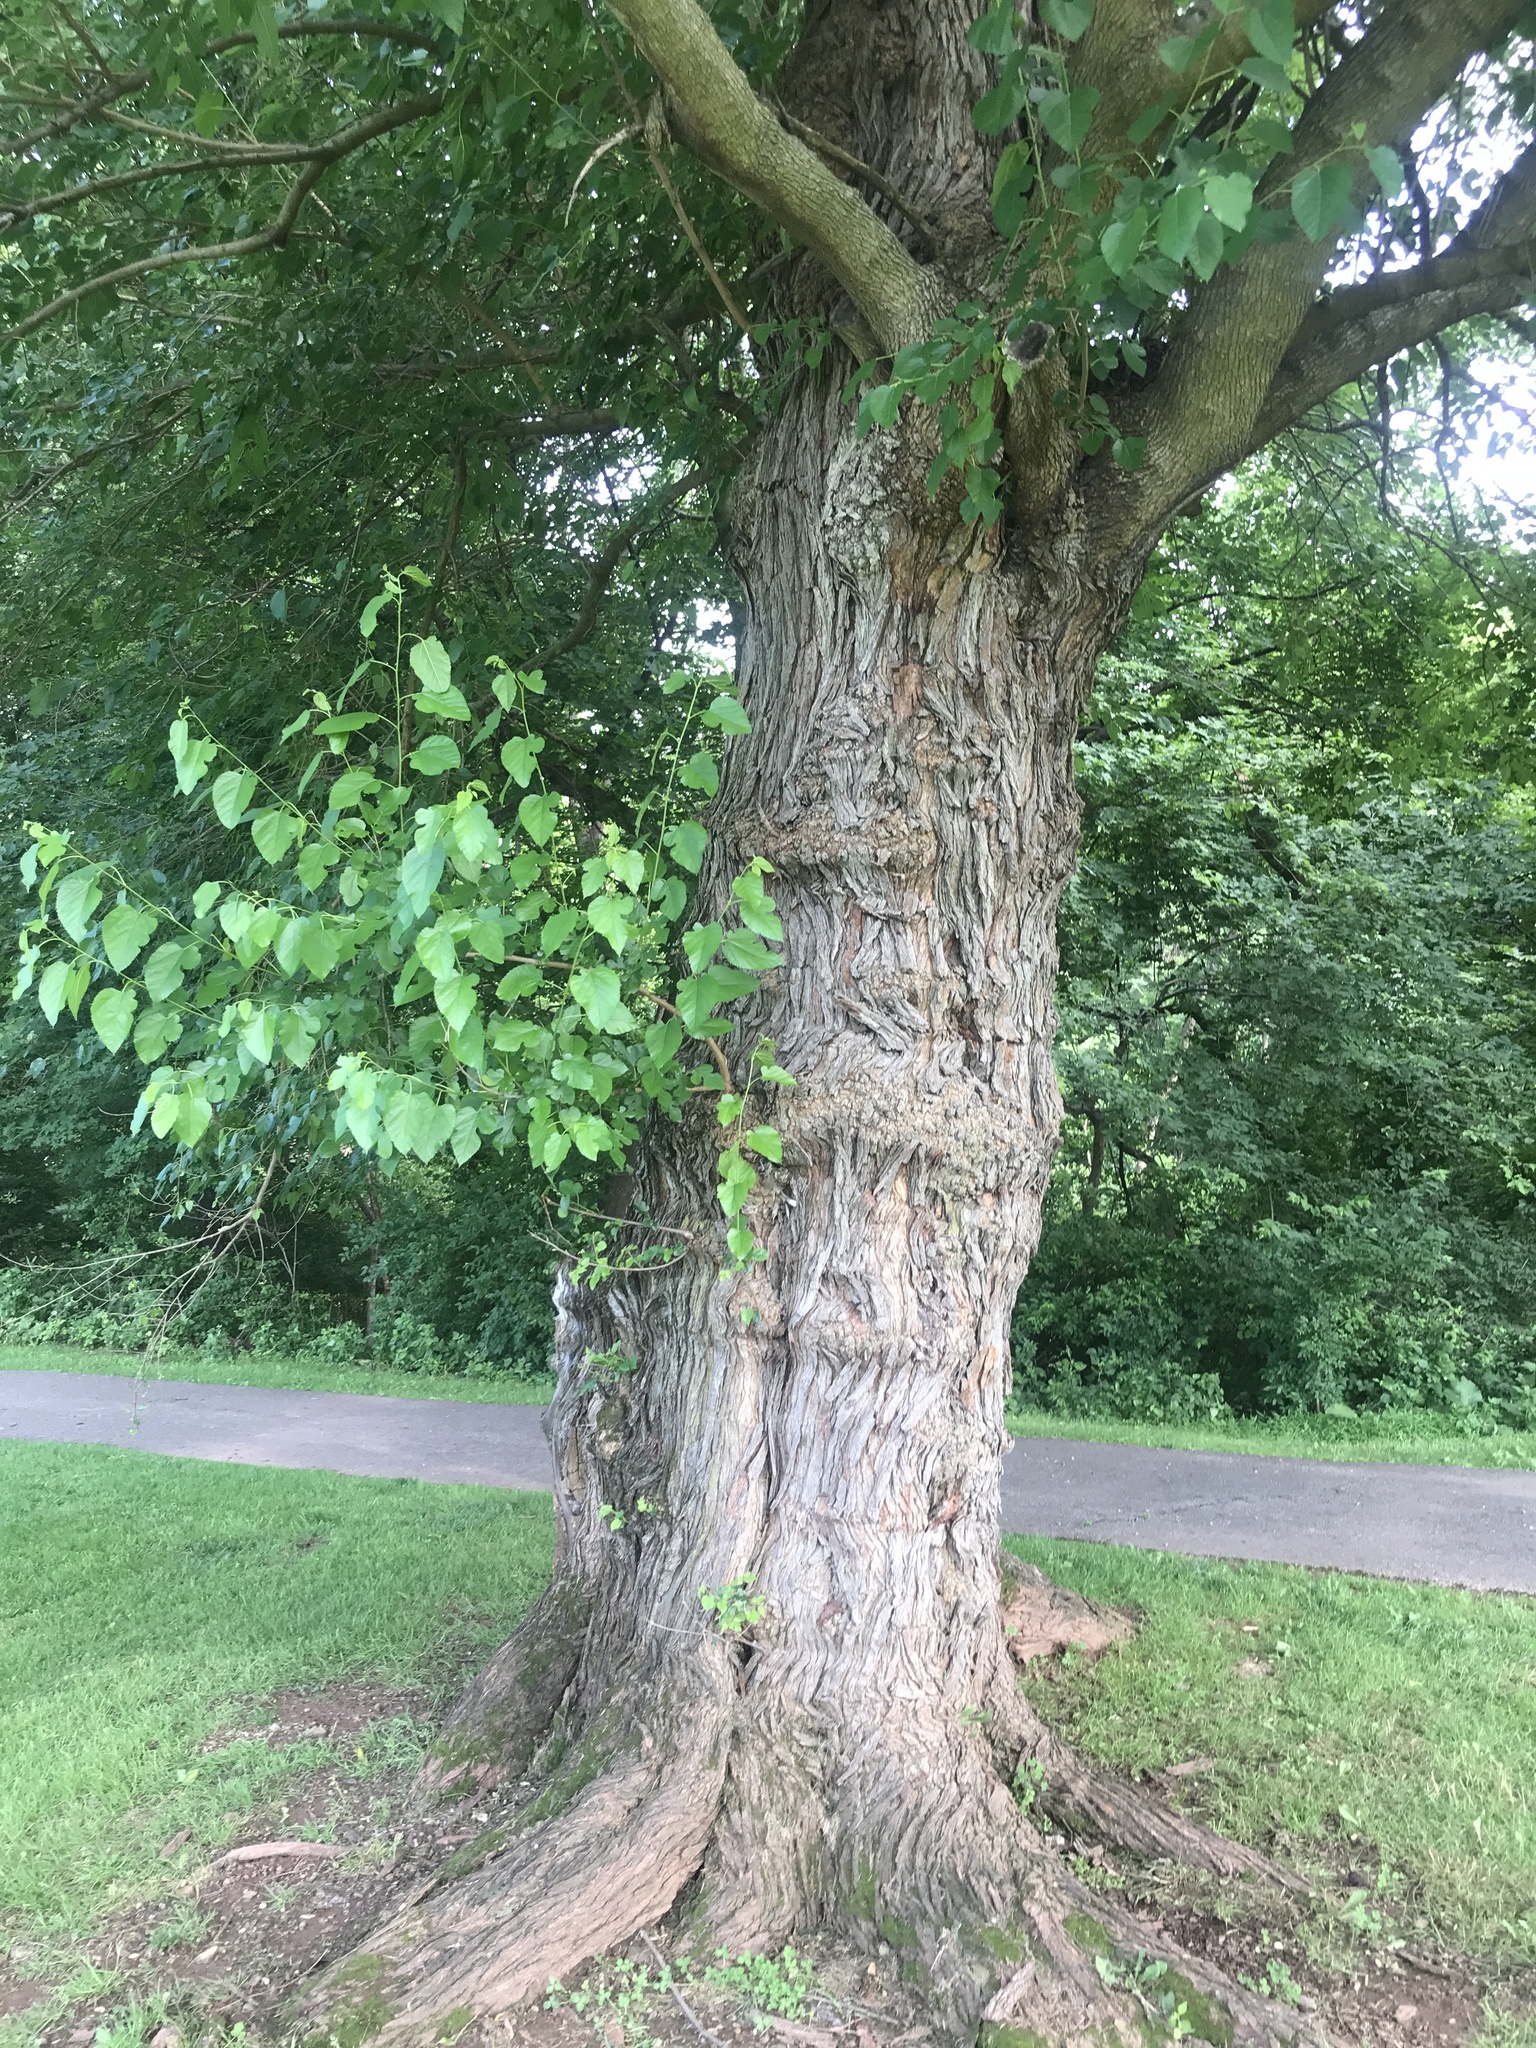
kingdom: Plantae
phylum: Tracheophyta
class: Magnoliopsida
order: Rosales
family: Moraceae
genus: Morus
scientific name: Morus alba
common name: White mulberry
